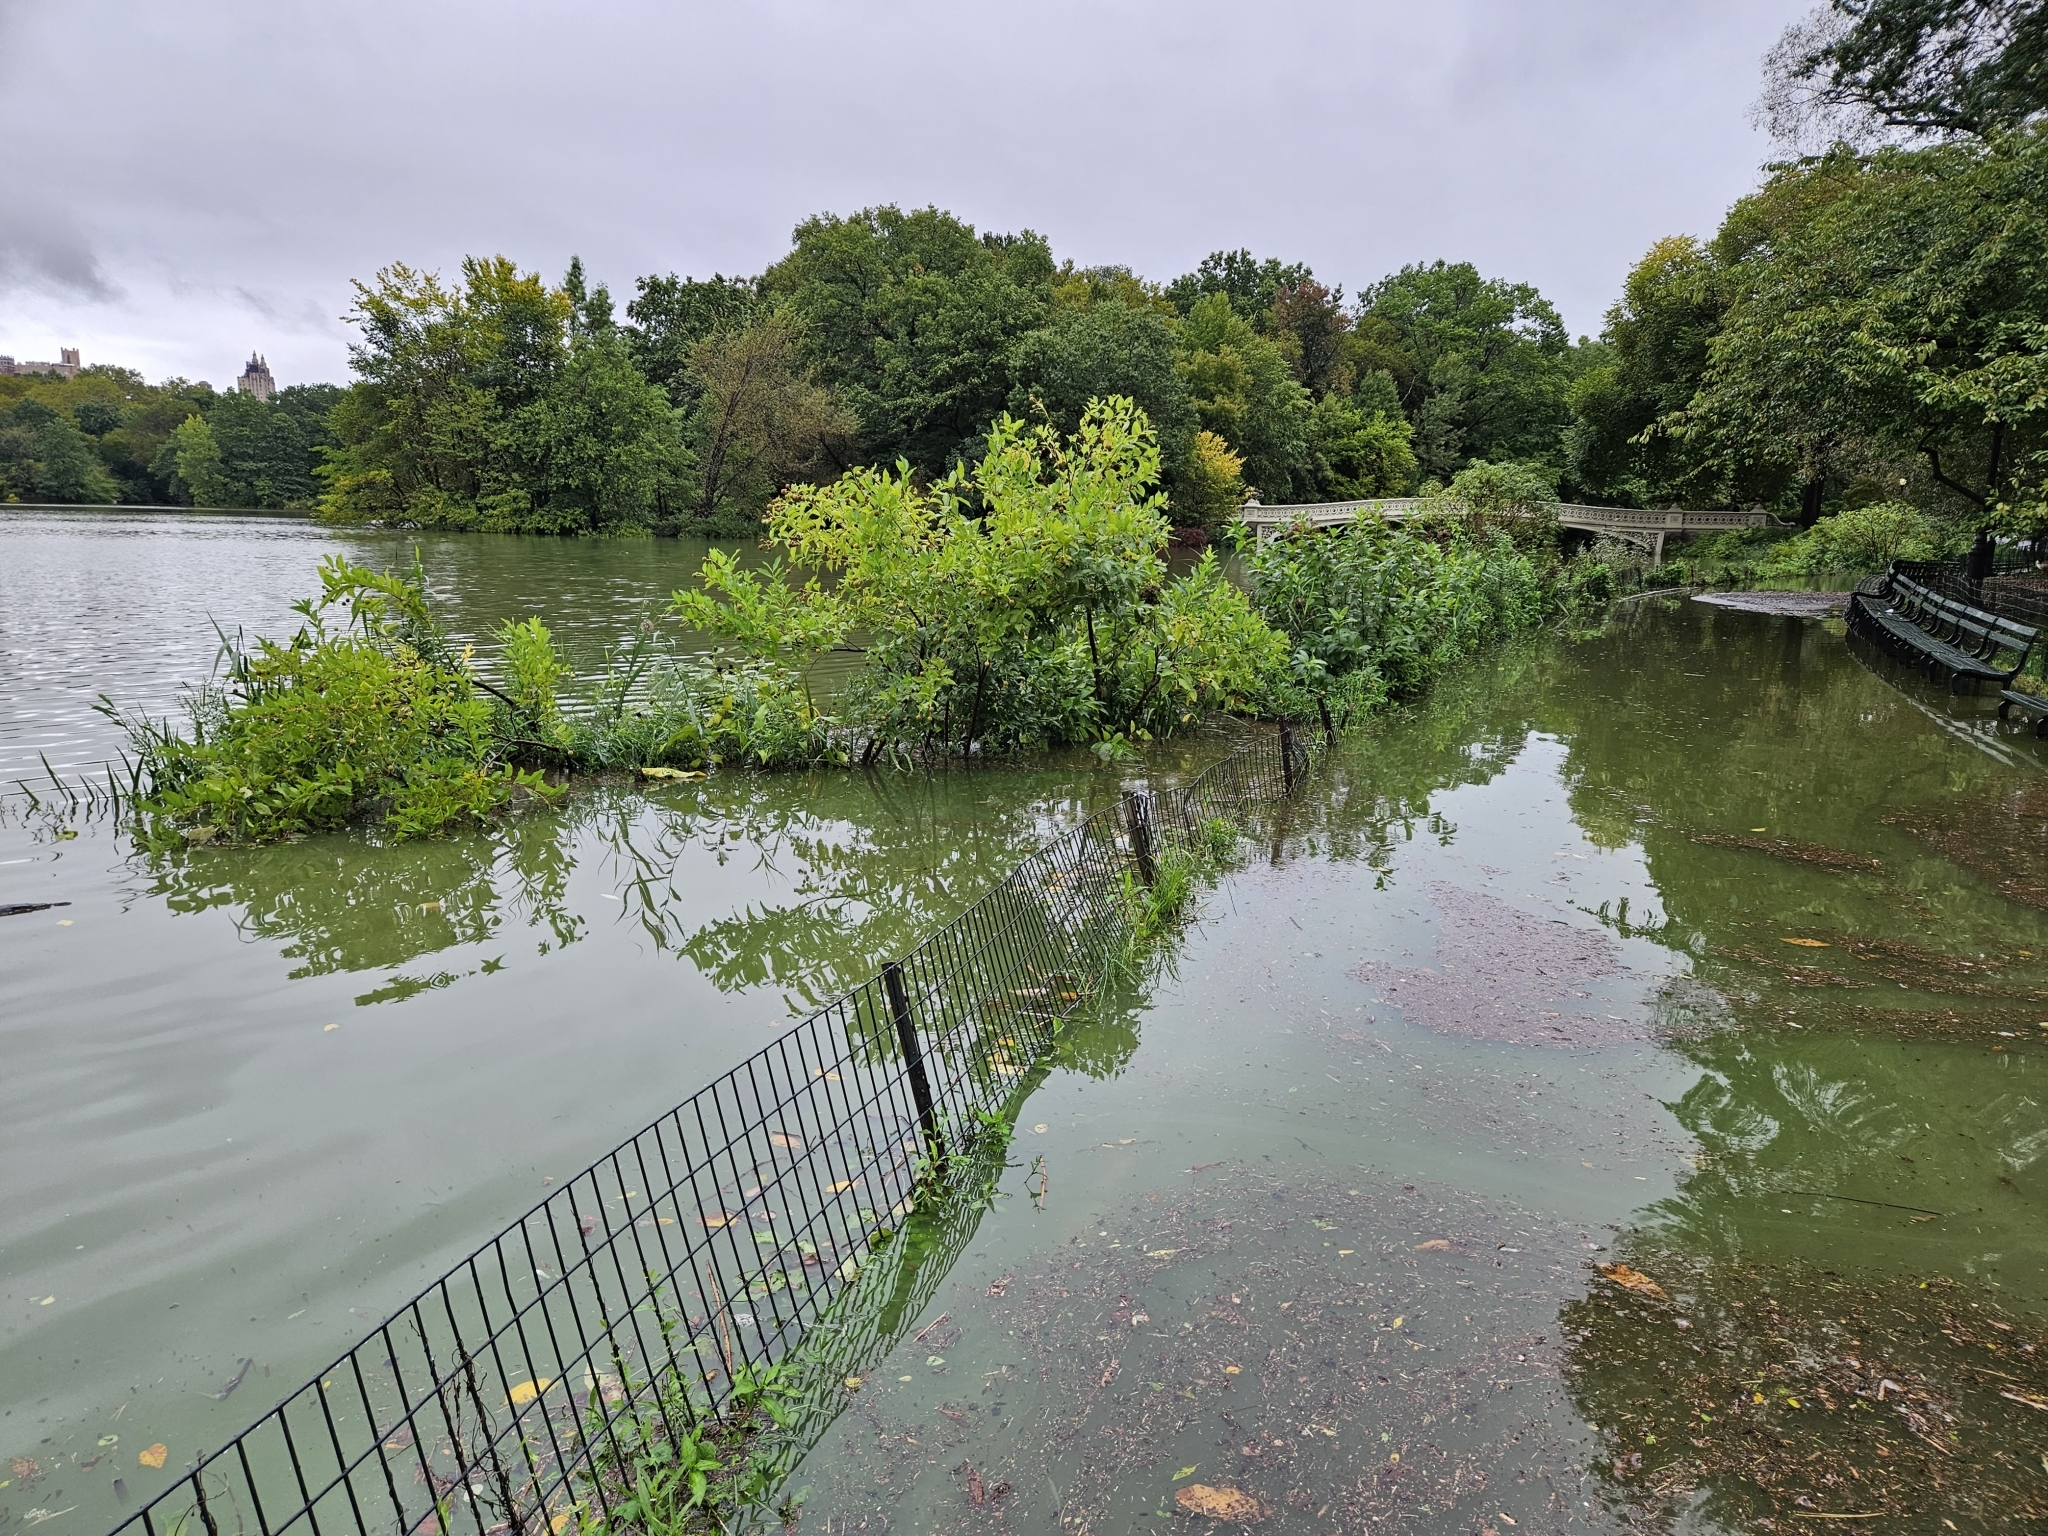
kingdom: Plantae
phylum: Tracheophyta
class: Magnoliopsida
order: Gentianales
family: Rubiaceae
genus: Cephalanthus
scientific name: Cephalanthus occidentalis
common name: Button-willow
